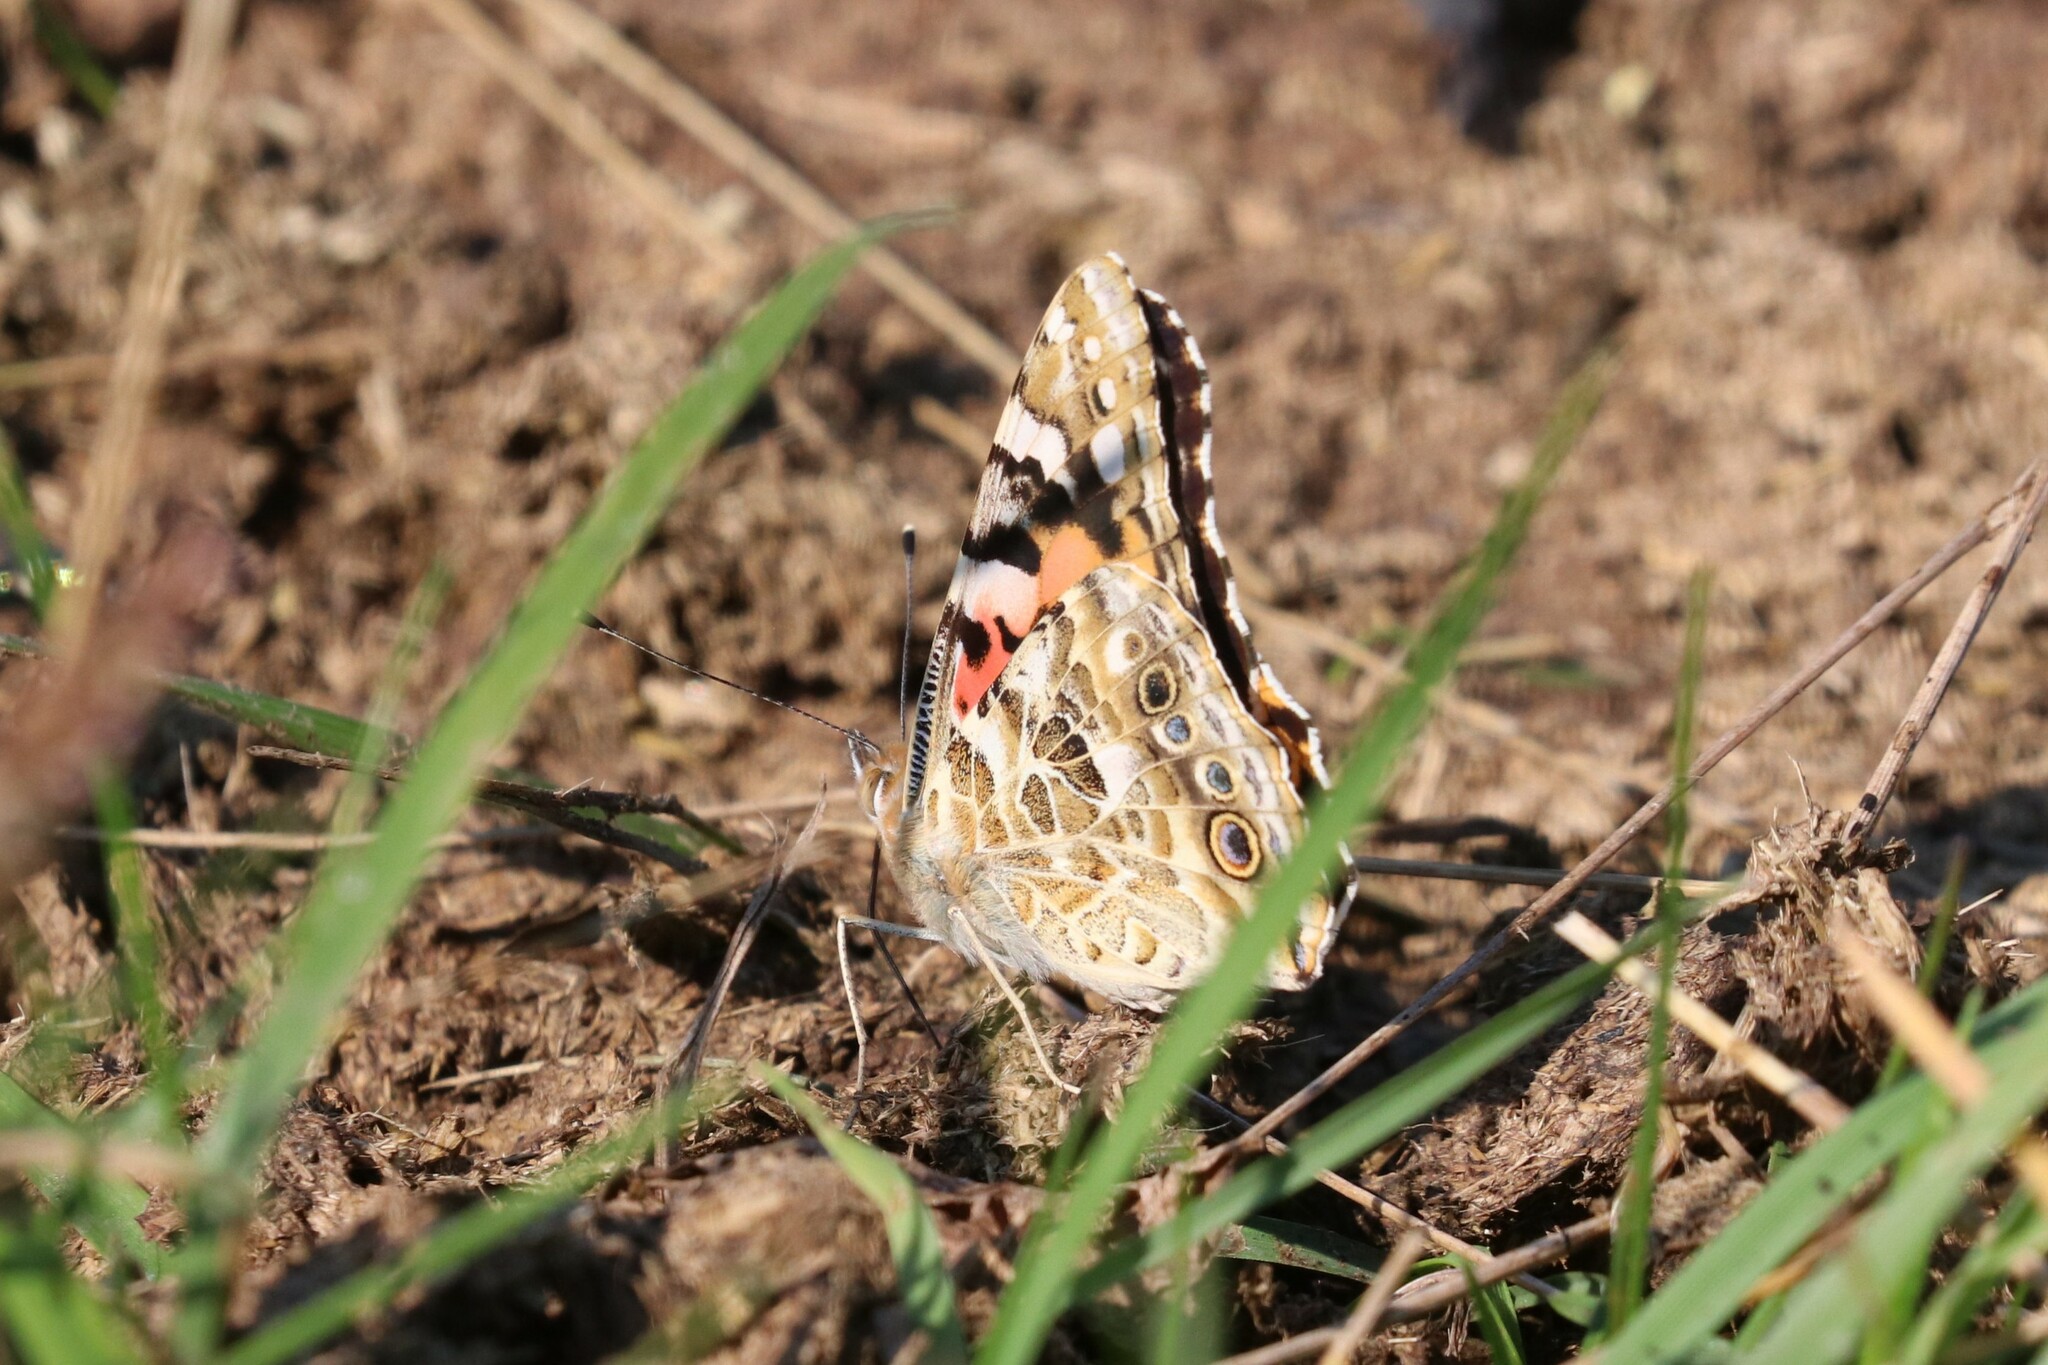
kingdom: Animalia
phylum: Arthropoda
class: Insecta
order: Lepidoptera
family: Nymphalidae
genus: Vanessa
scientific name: Vanessa cardui
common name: Painted lady
